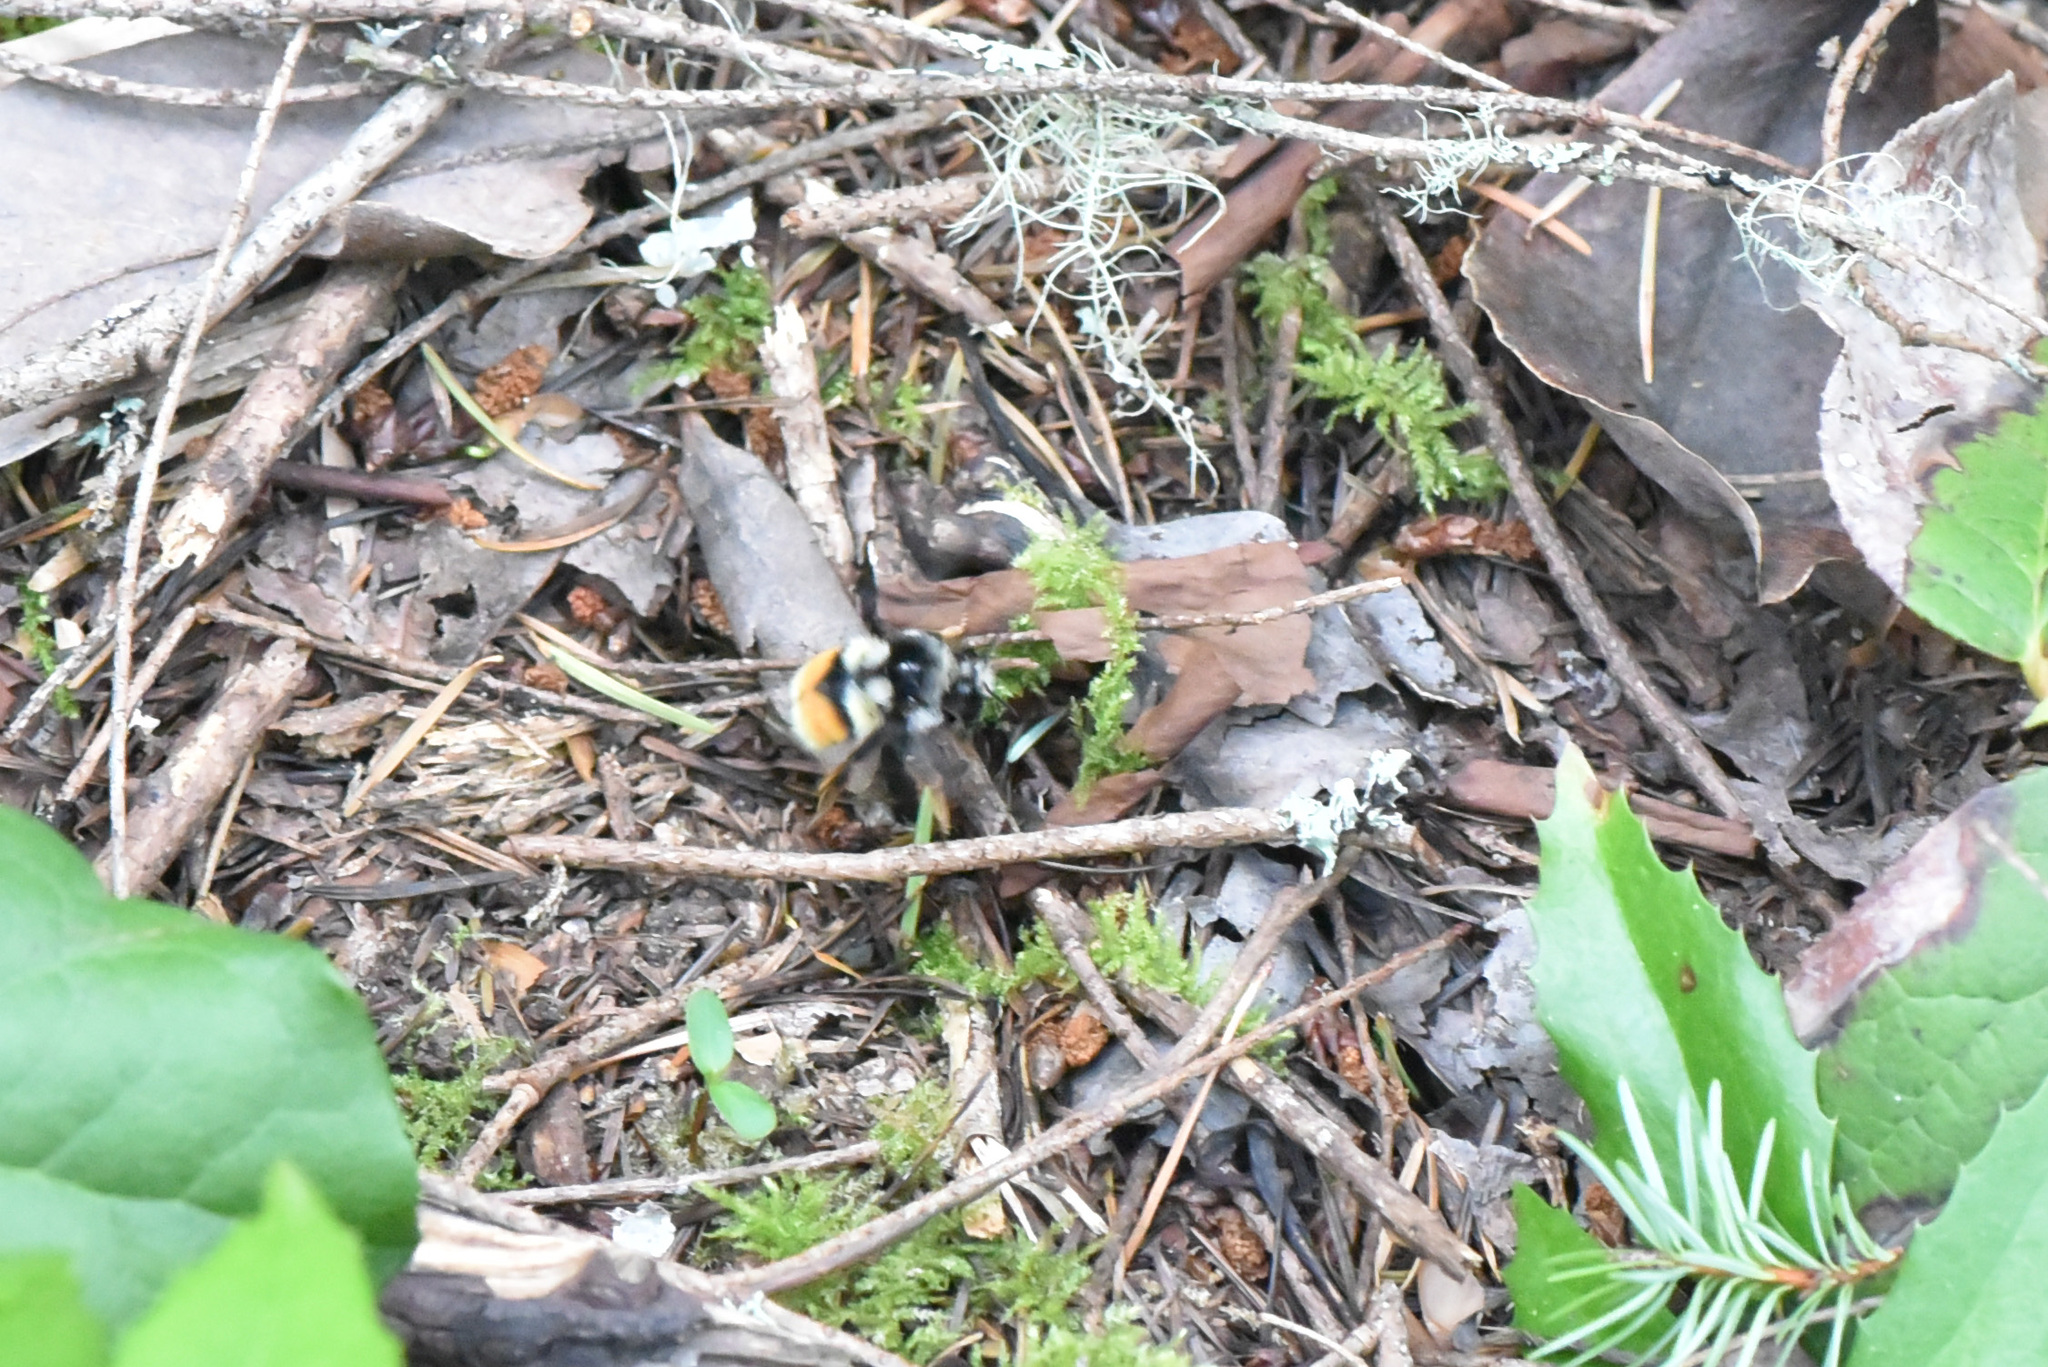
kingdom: Animalia
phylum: Arthropoda
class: Insecta
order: Hymenoptera
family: Apidae
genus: Bombus
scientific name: Bombus vancouverensis
